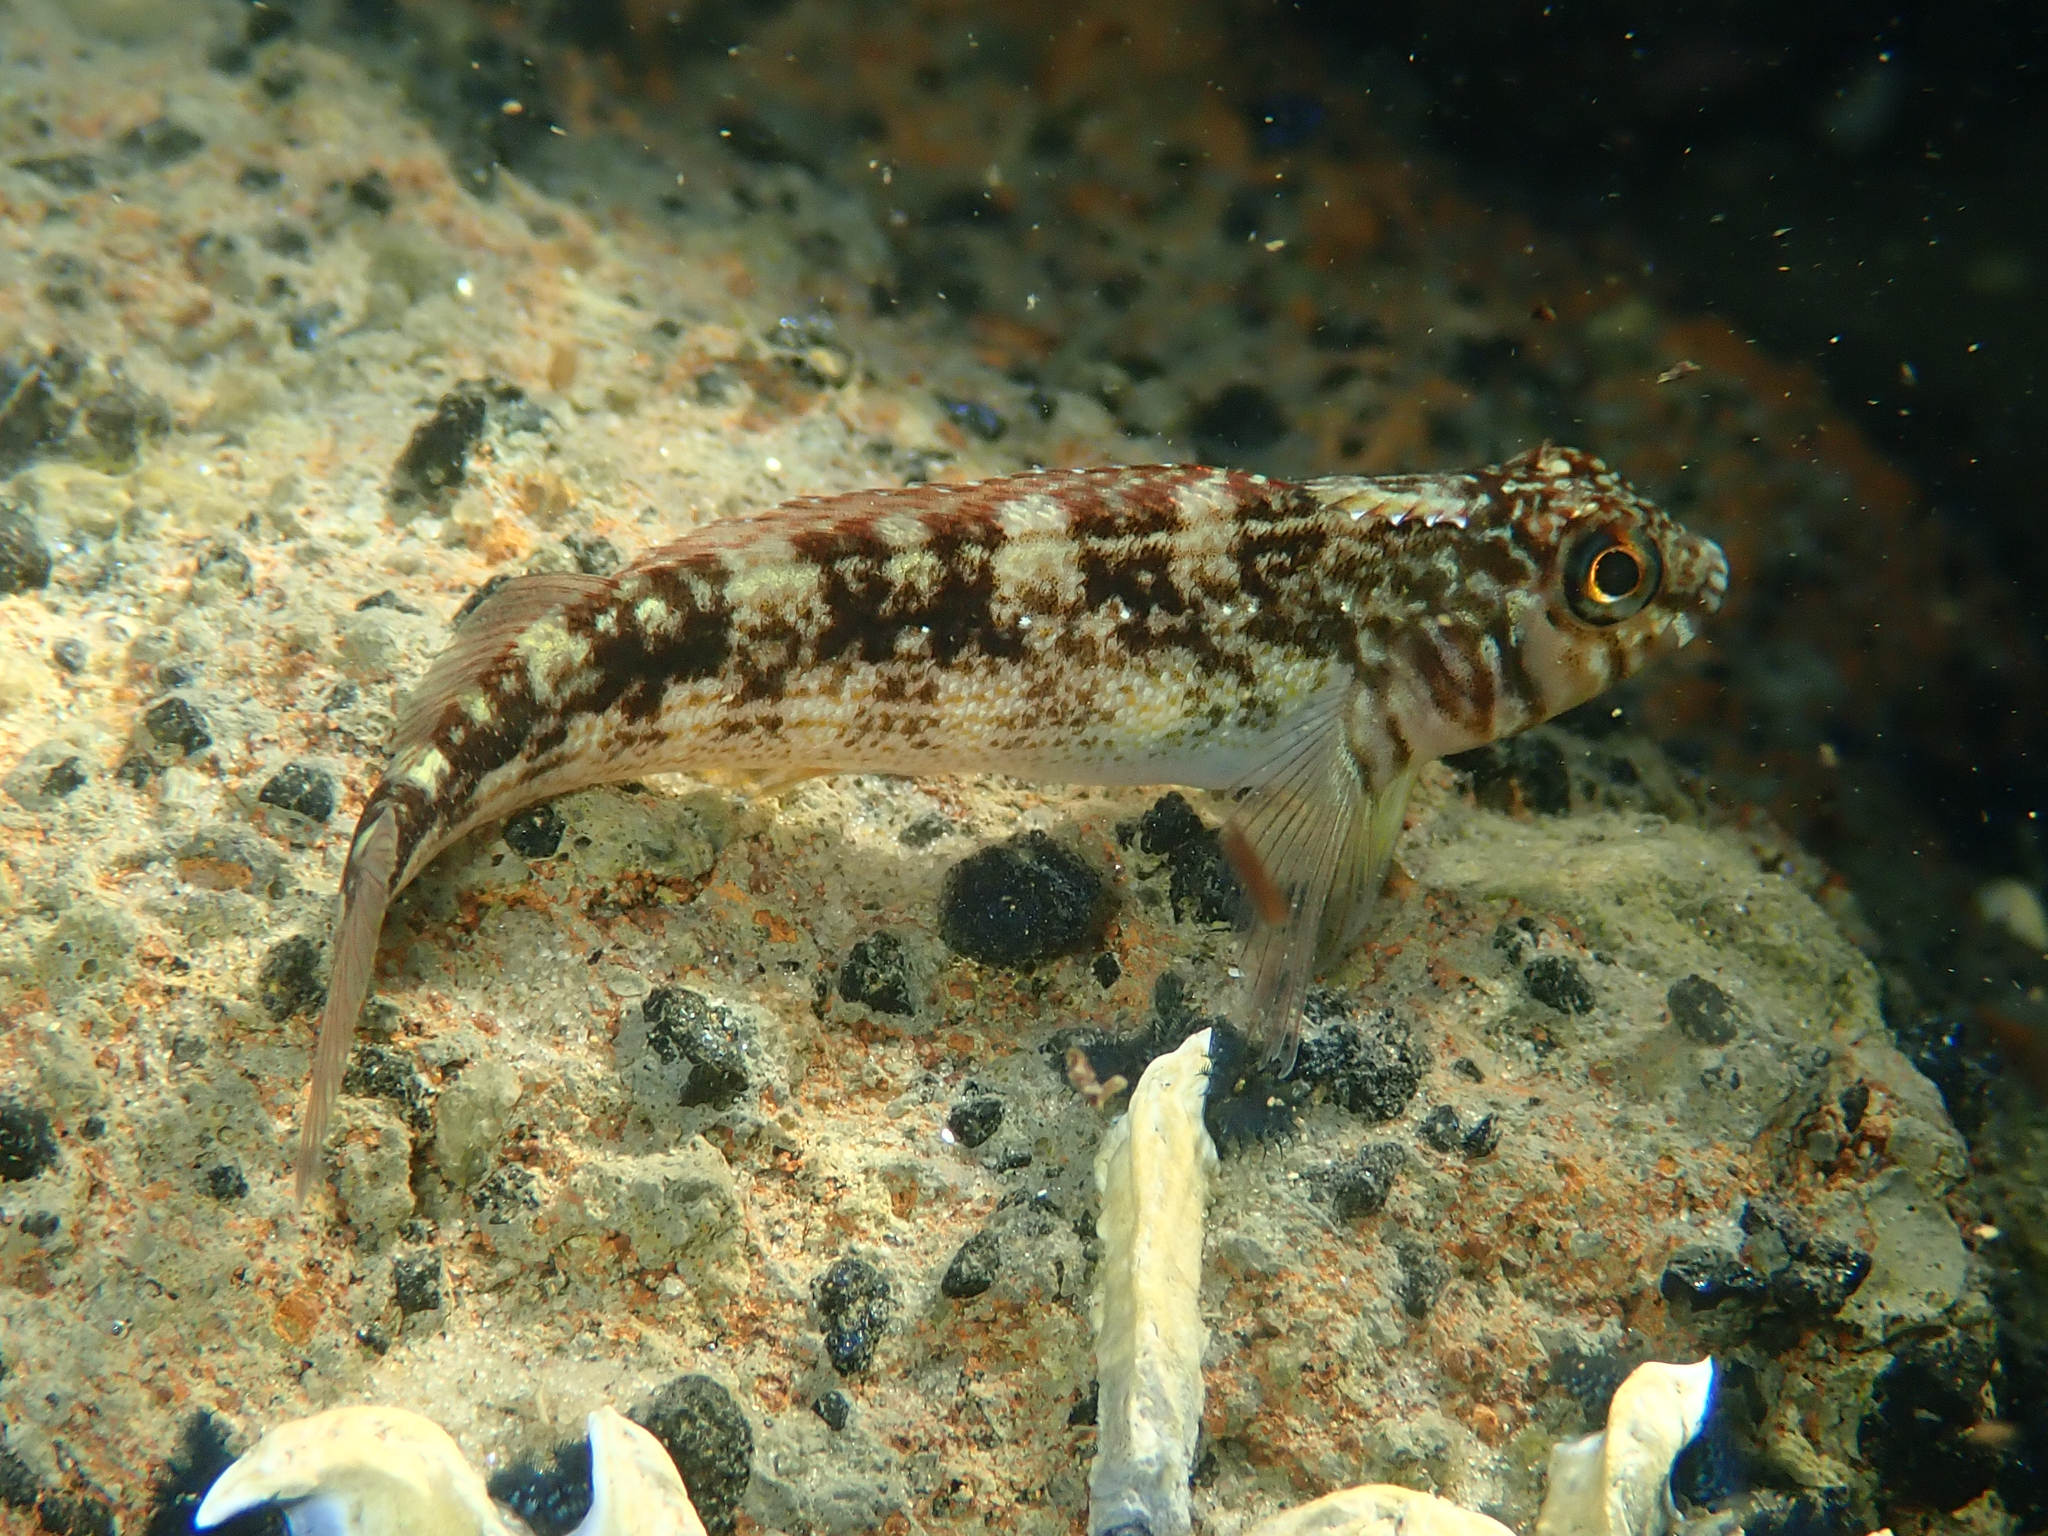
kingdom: Animalia
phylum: Chordata
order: Perciformes
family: Tripterygiidae
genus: Forsterygion
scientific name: Forsterygion varium
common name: Variable triplefin
